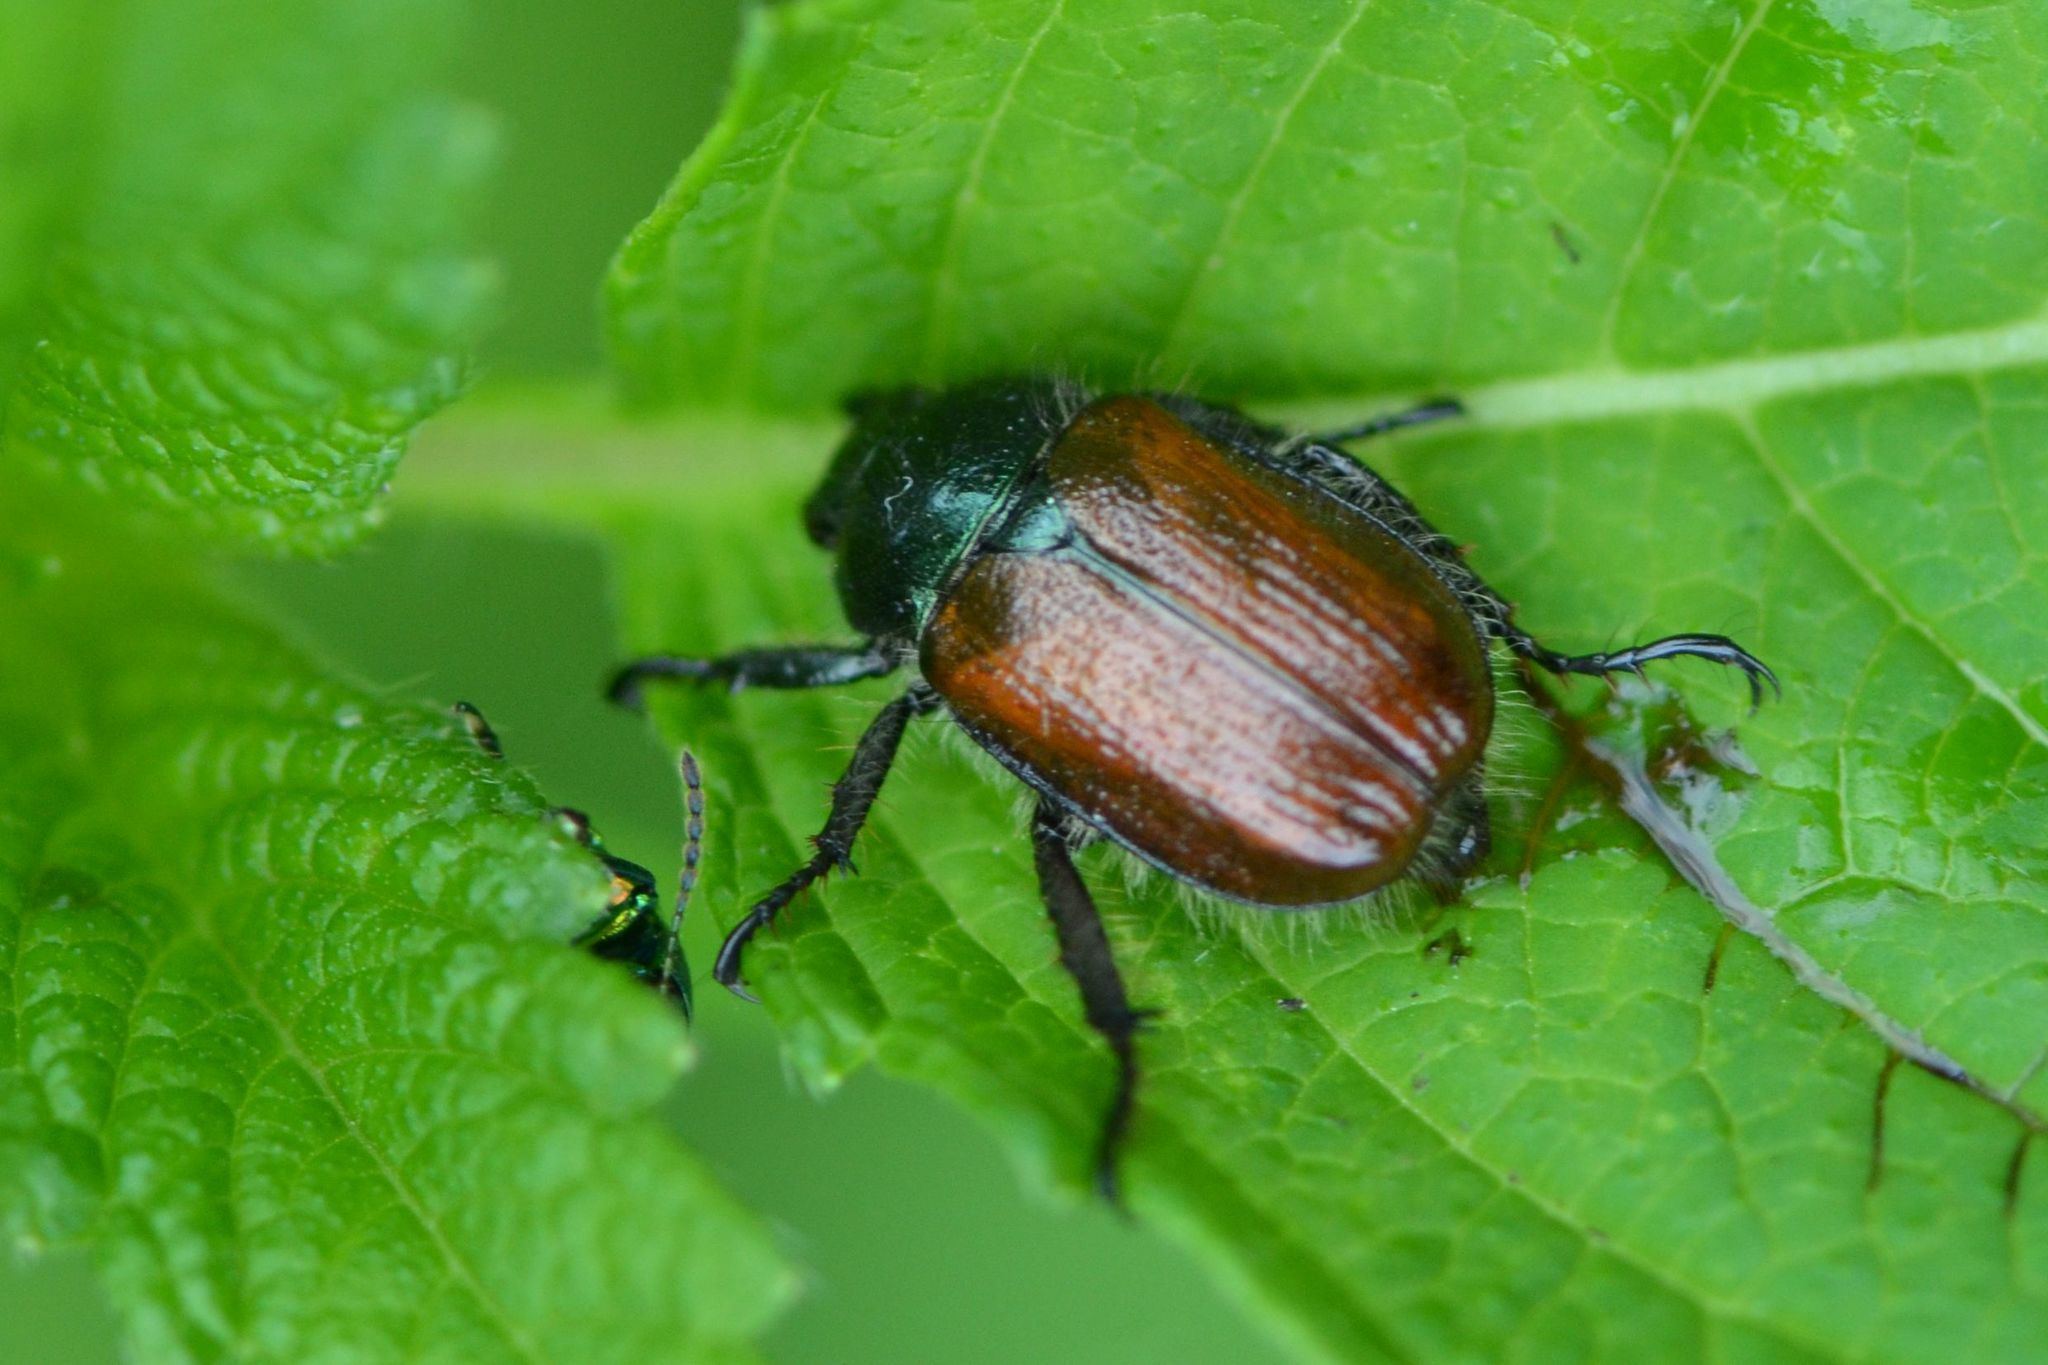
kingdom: Animalia
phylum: Arthropoda
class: Insecta
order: Coleoptera
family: Scarabaeidae
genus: Phyllopertha
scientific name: Phyllopertha horticola
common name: Garden chafer
